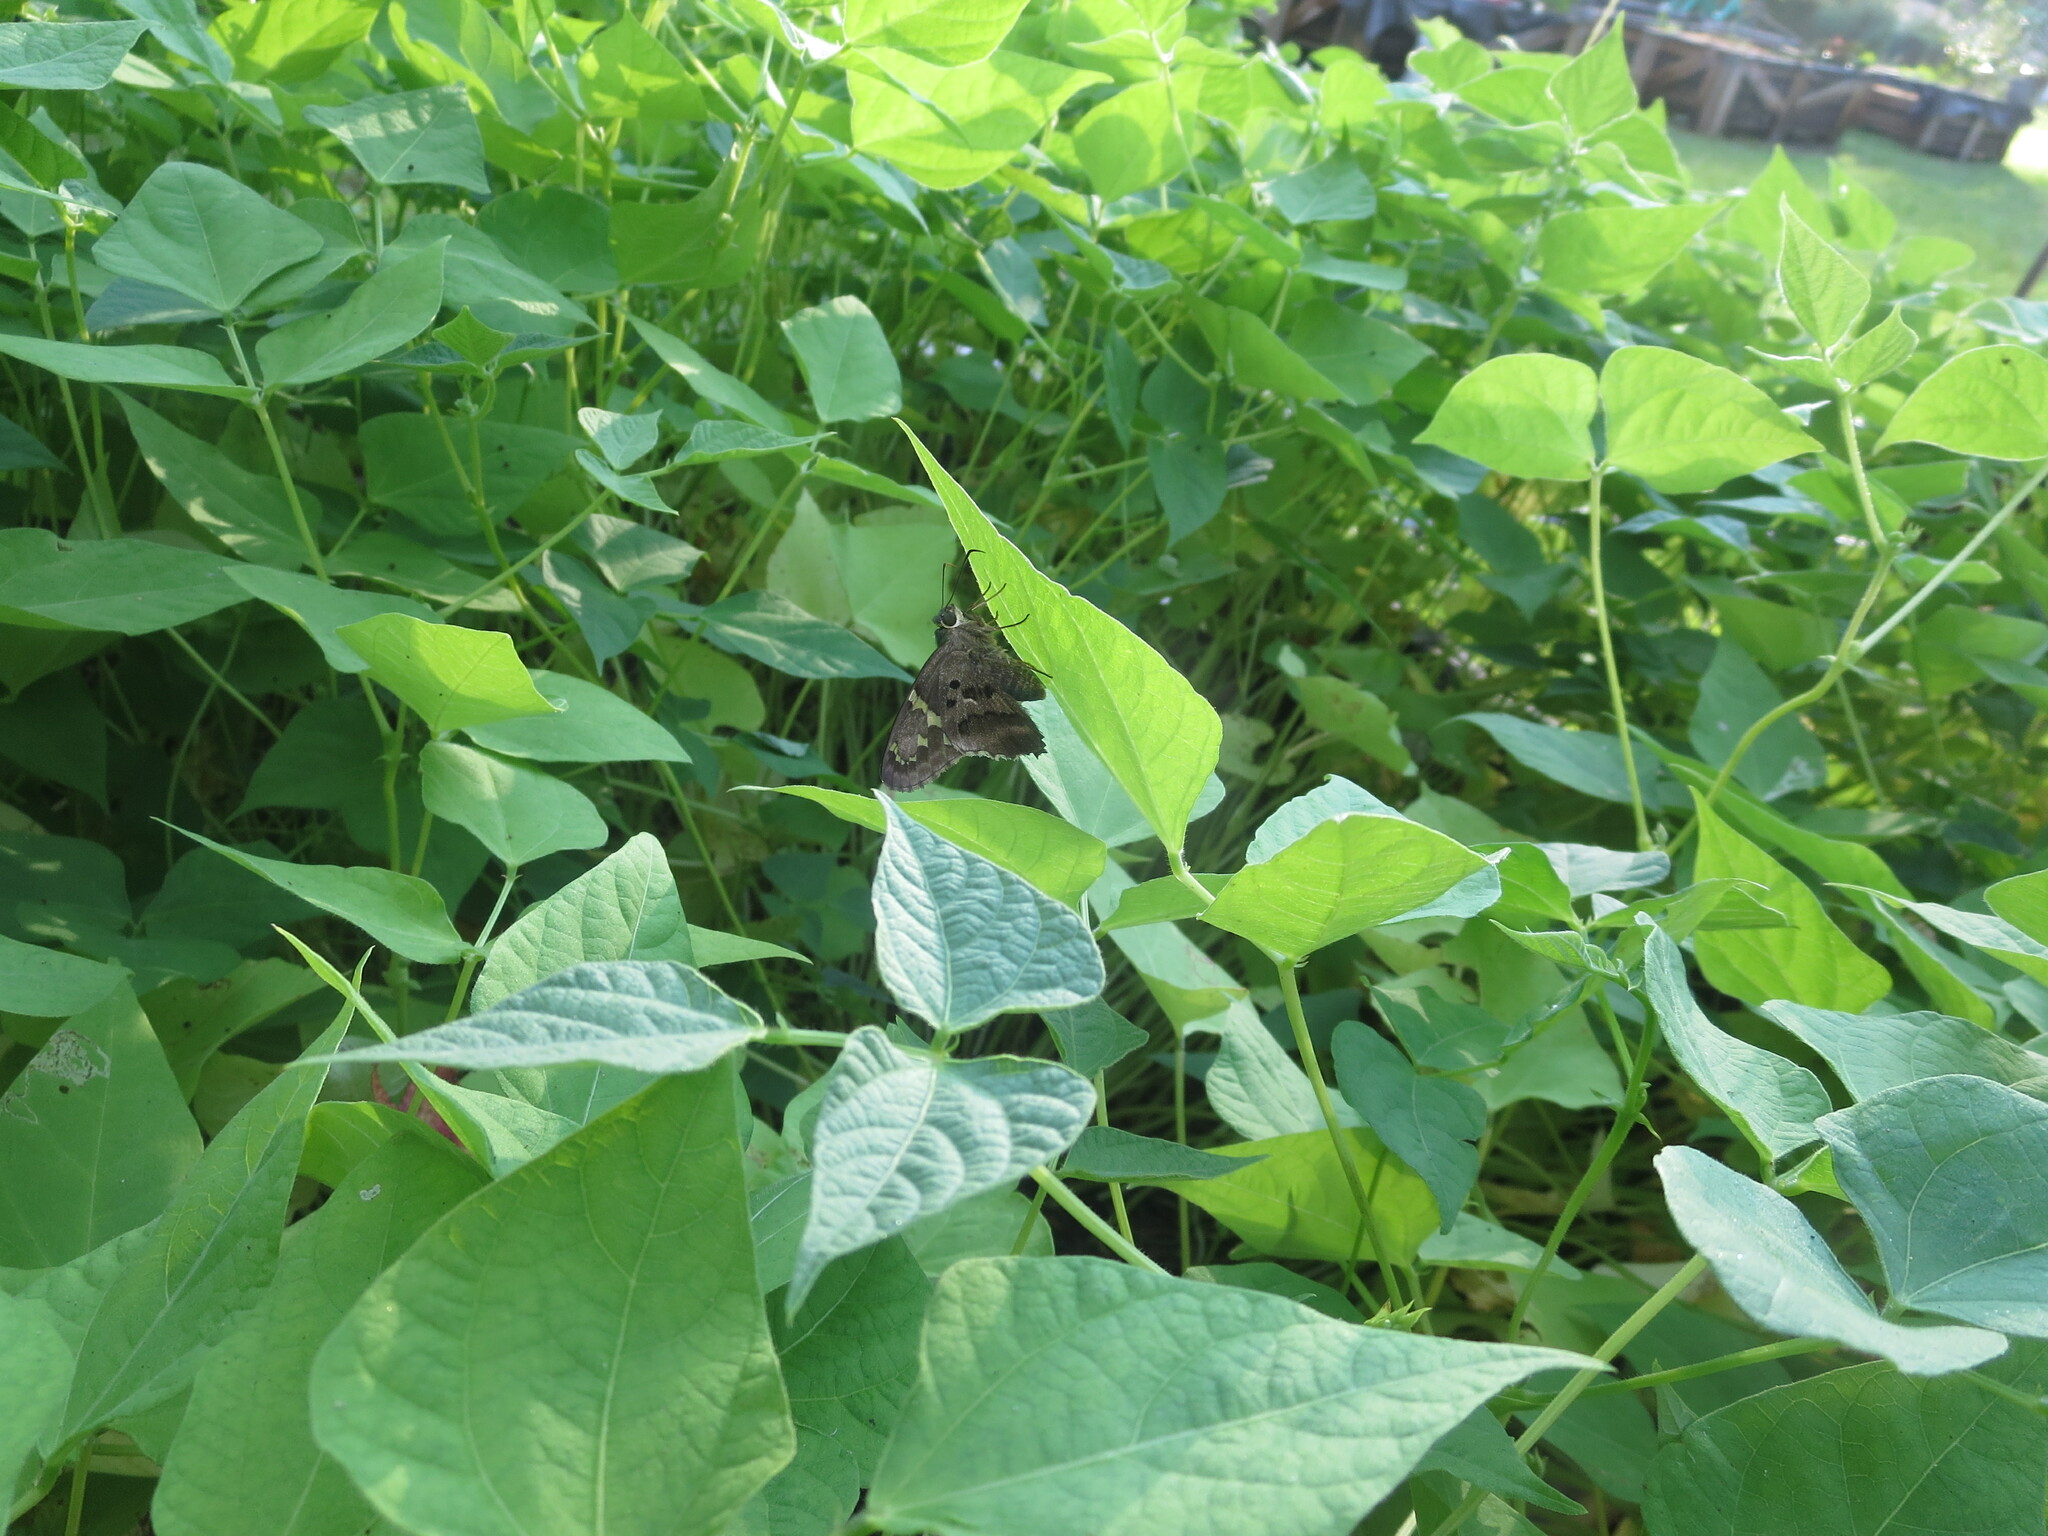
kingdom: Animalia
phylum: Arthropoda
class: Insecta
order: Lepidoptera
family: Hesperiidae
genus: Urbanus
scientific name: Urbanus proteus
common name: Long-tailed skipper
